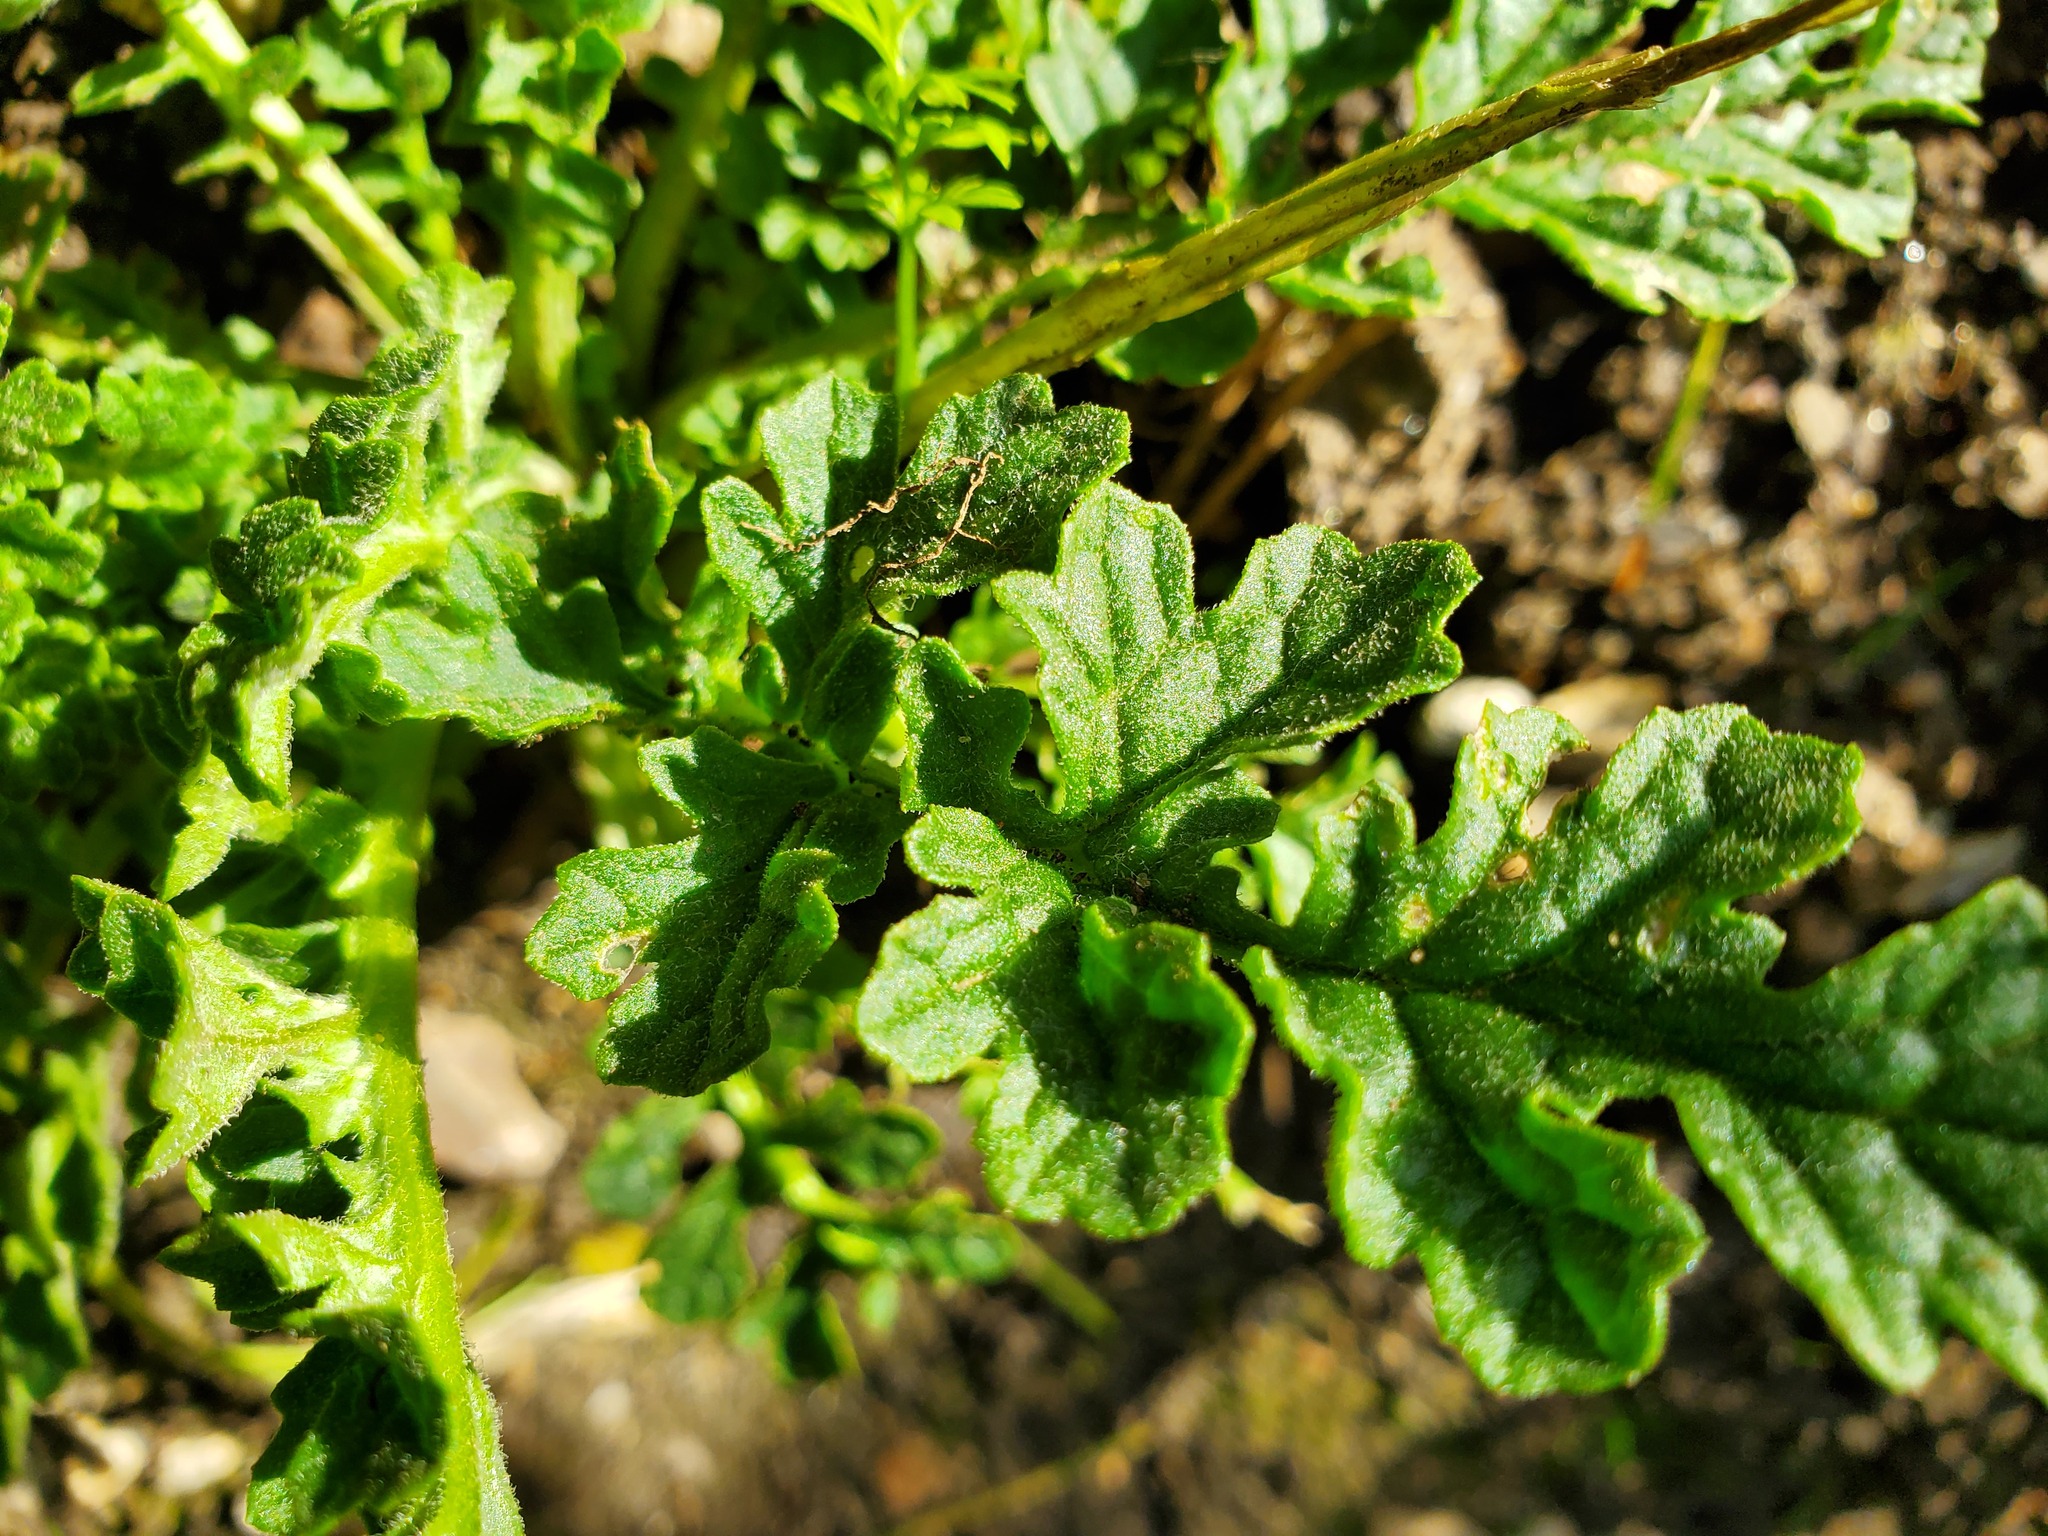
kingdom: Plantae
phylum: Tracheophyta
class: Magnoliopsida
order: Asterales
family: Asteraceae
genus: Jacobaea
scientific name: Jacobaea vulgaris
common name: Stinking willie
